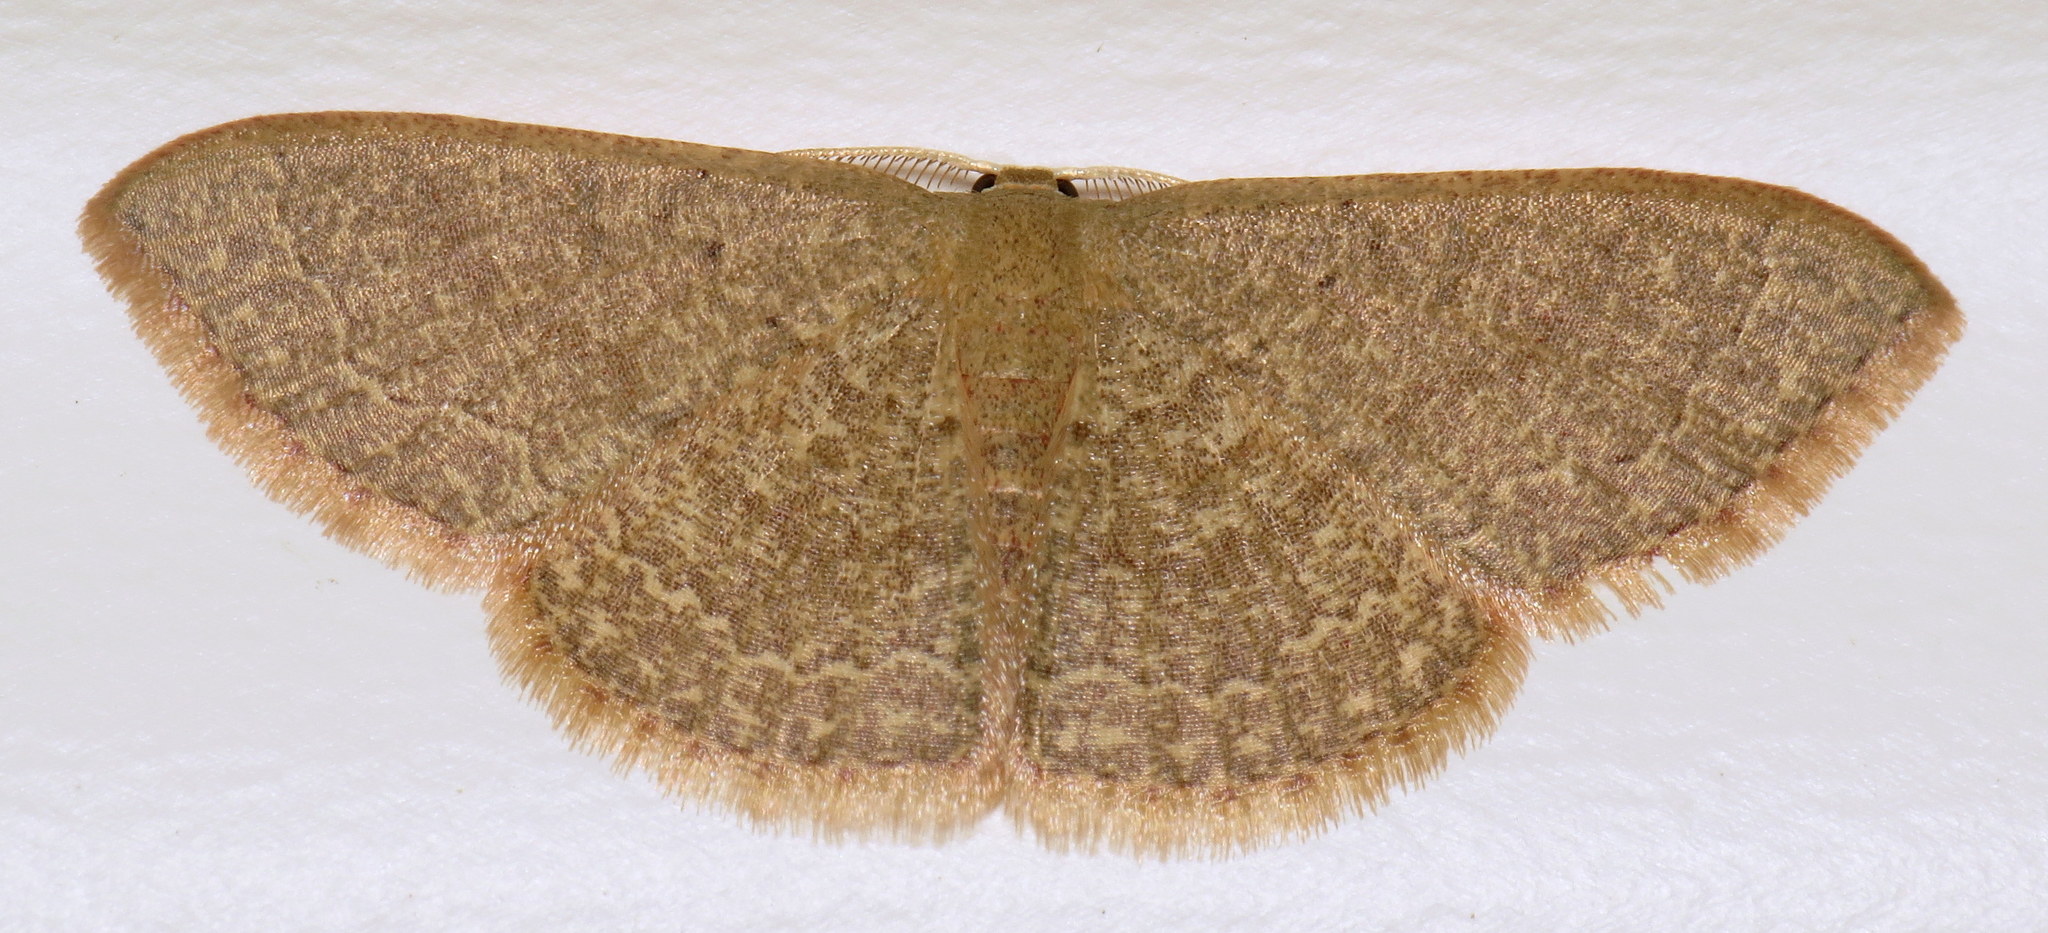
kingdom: Animalia
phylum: Arthropoda
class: Insecta
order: Lepidoptera
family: Geometridae
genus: Pleuroprucha
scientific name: Pleuroprucha insulsaria
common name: Common tan wave
